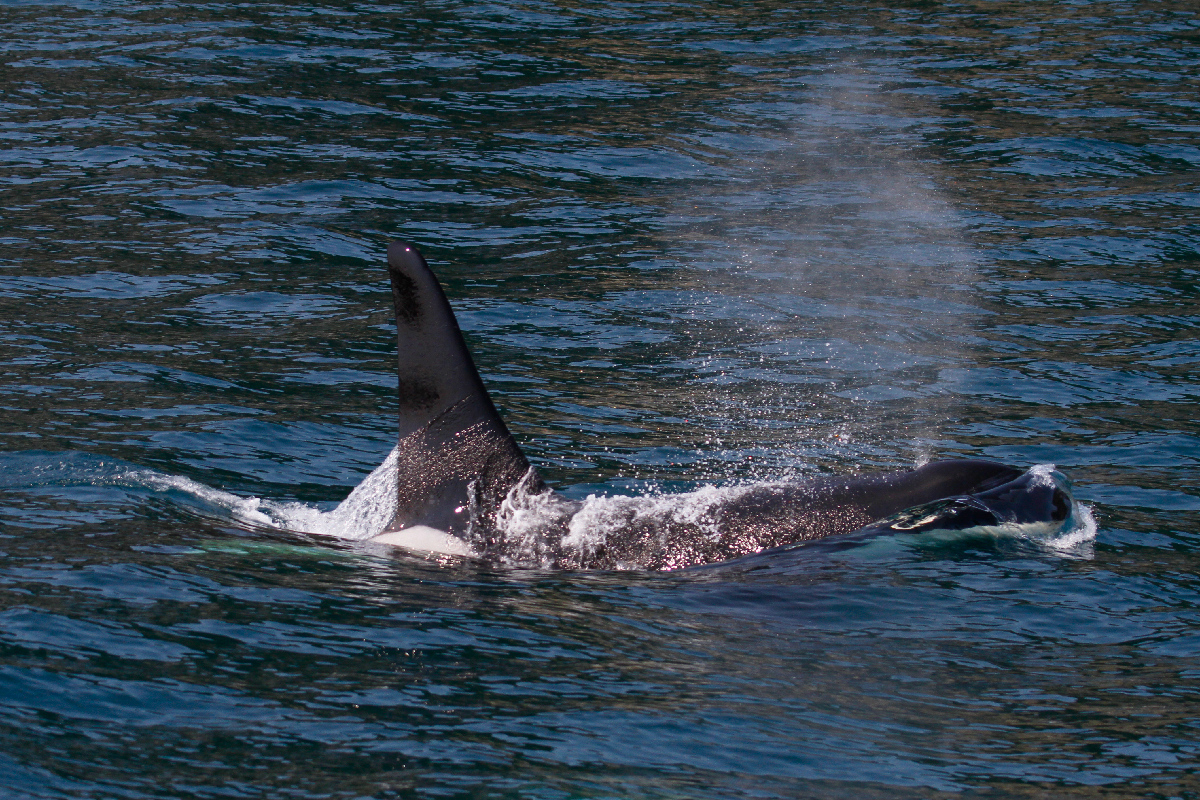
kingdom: Animalia
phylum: Chordata
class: Mammalia
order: Cetacea
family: Delphinidae
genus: Orcinus
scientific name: Orcinus orca
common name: Killer whale
